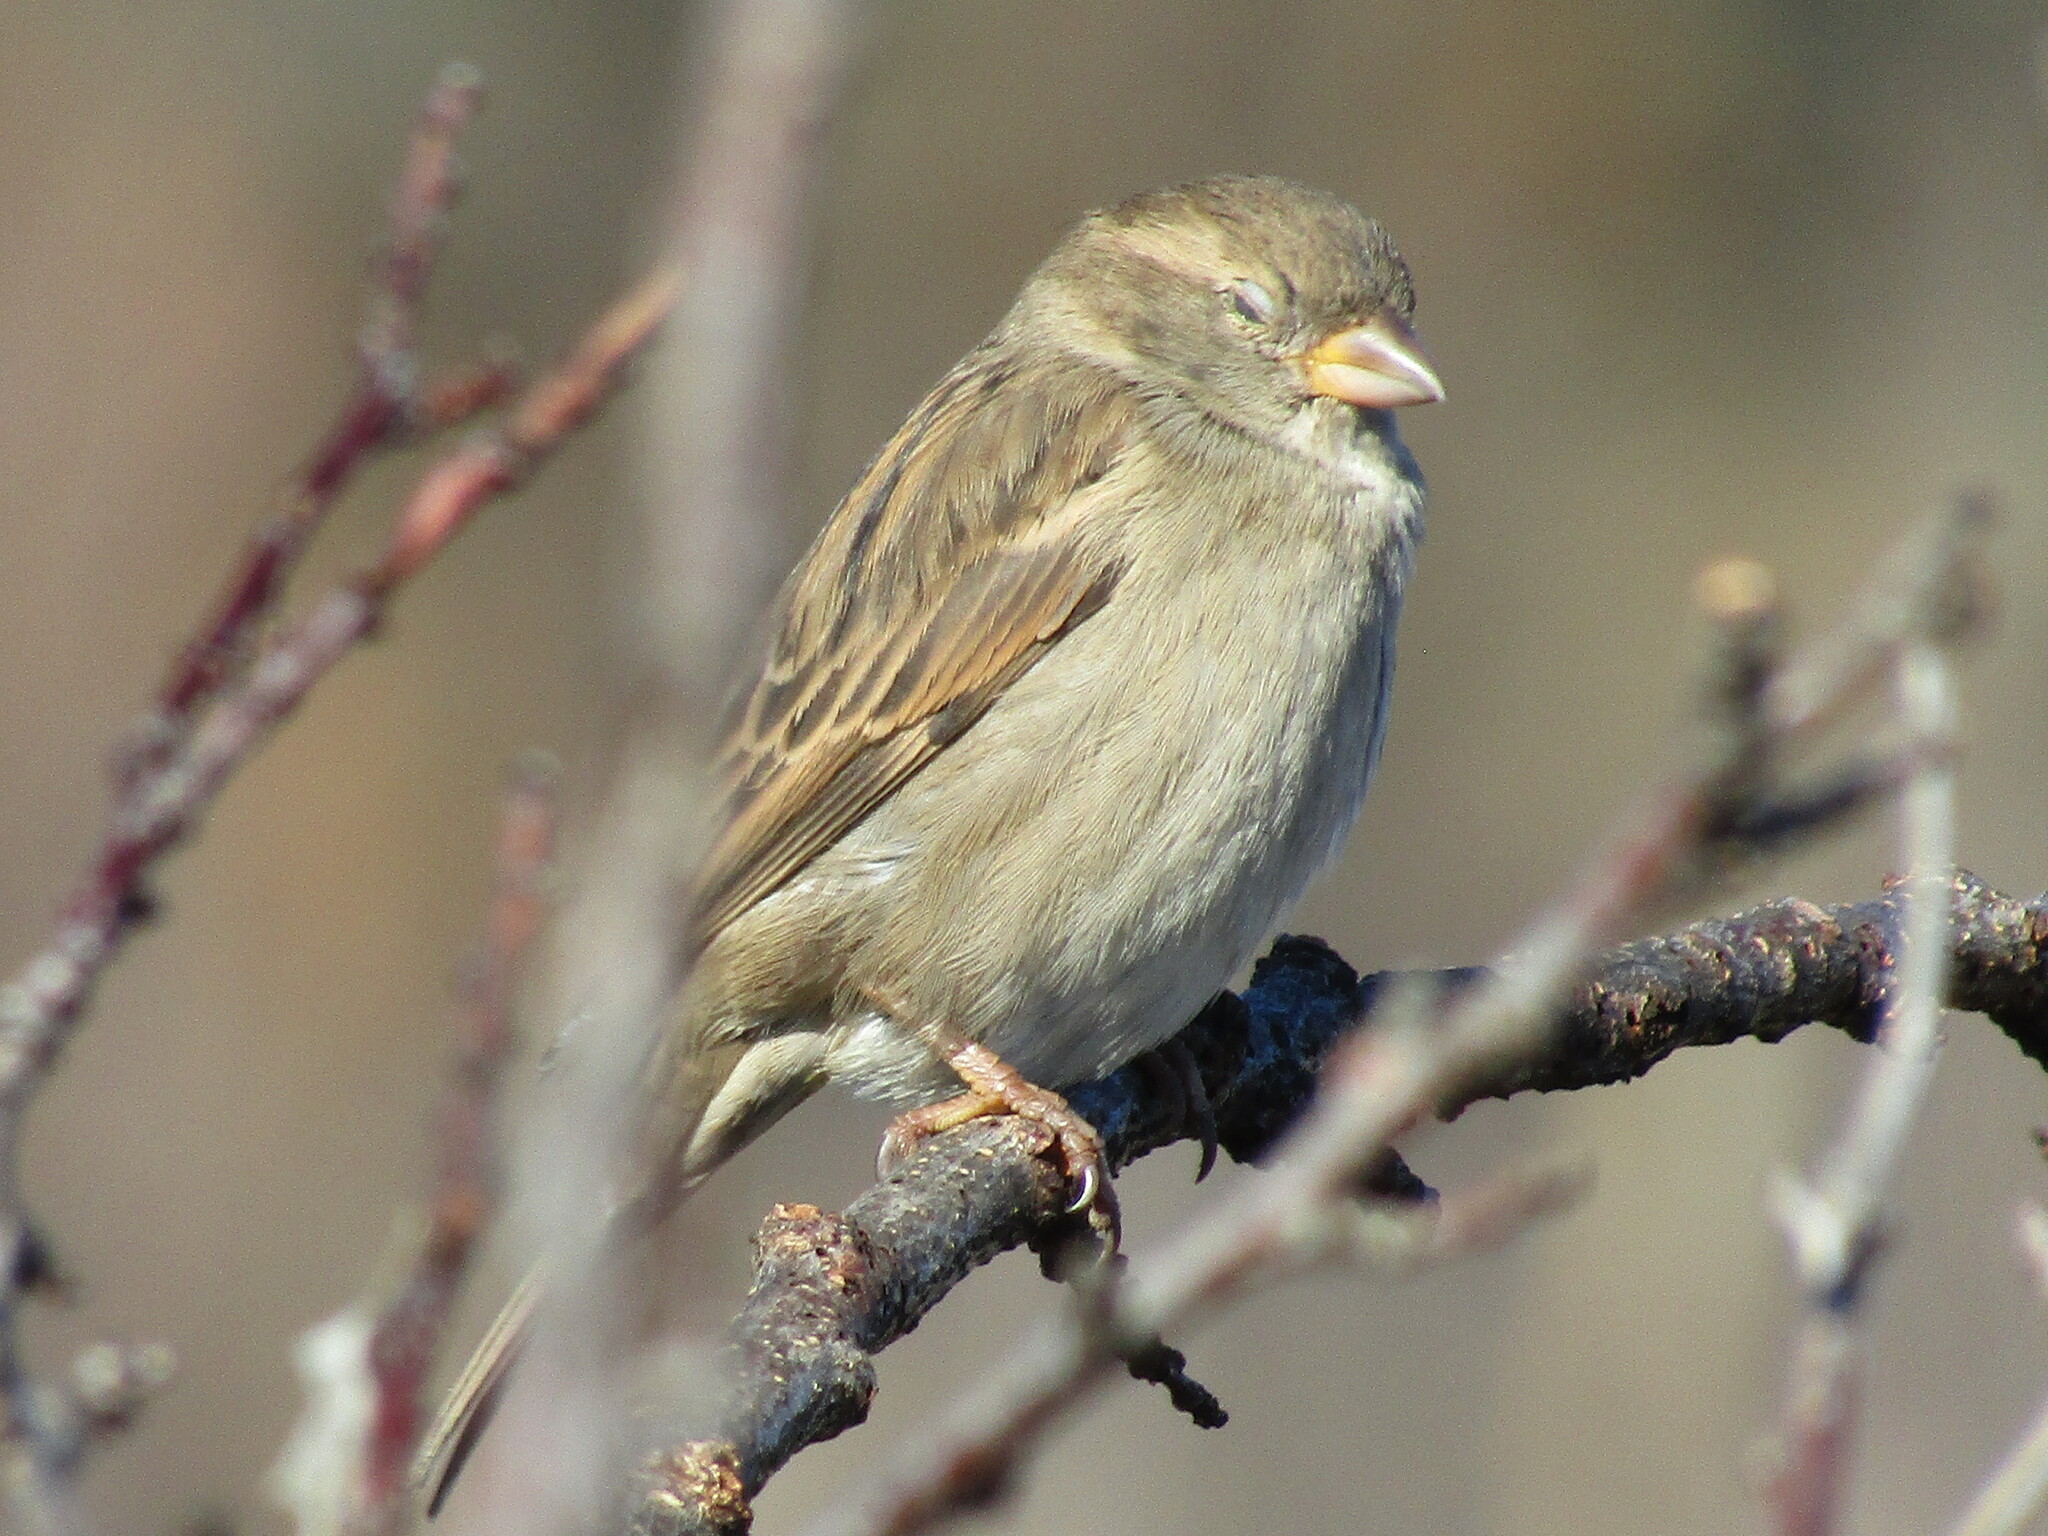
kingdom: Animalia
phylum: Chordata
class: Aves
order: Passeriformes
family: Passeridae
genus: Passer
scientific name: Passer domesticus
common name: House sparrow
